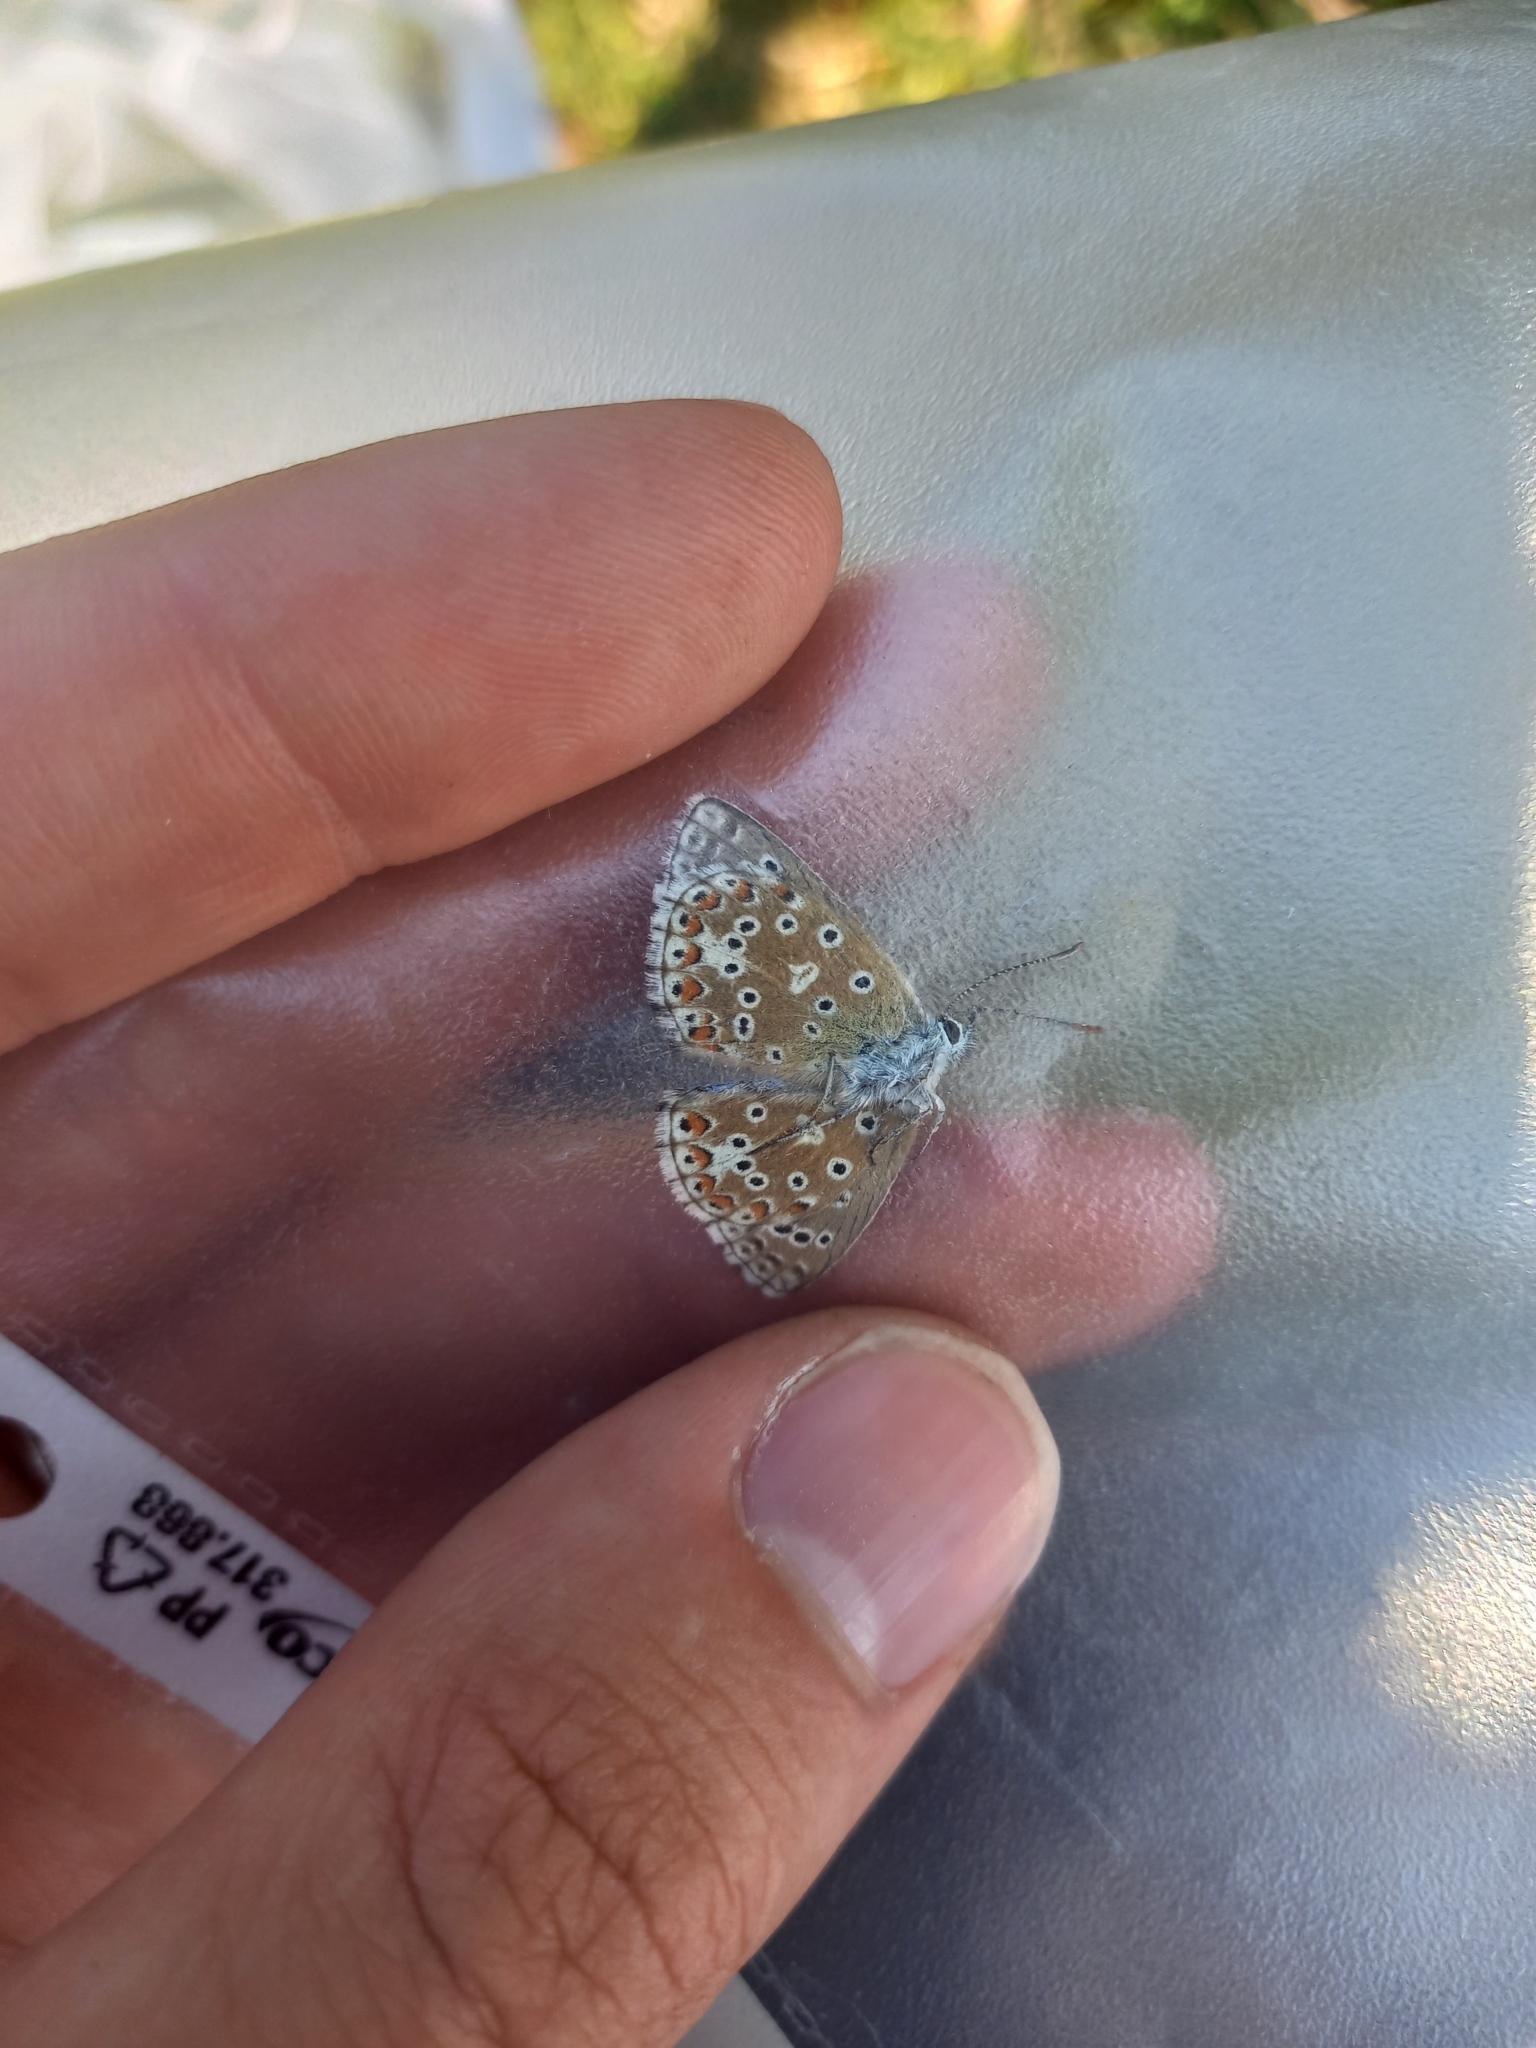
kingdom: Animalia
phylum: Arthropoda
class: Insecta
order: Lepidoptera
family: Lycaenidae
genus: Lysandra
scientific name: Lysandra bellargus
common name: Adonis blue
